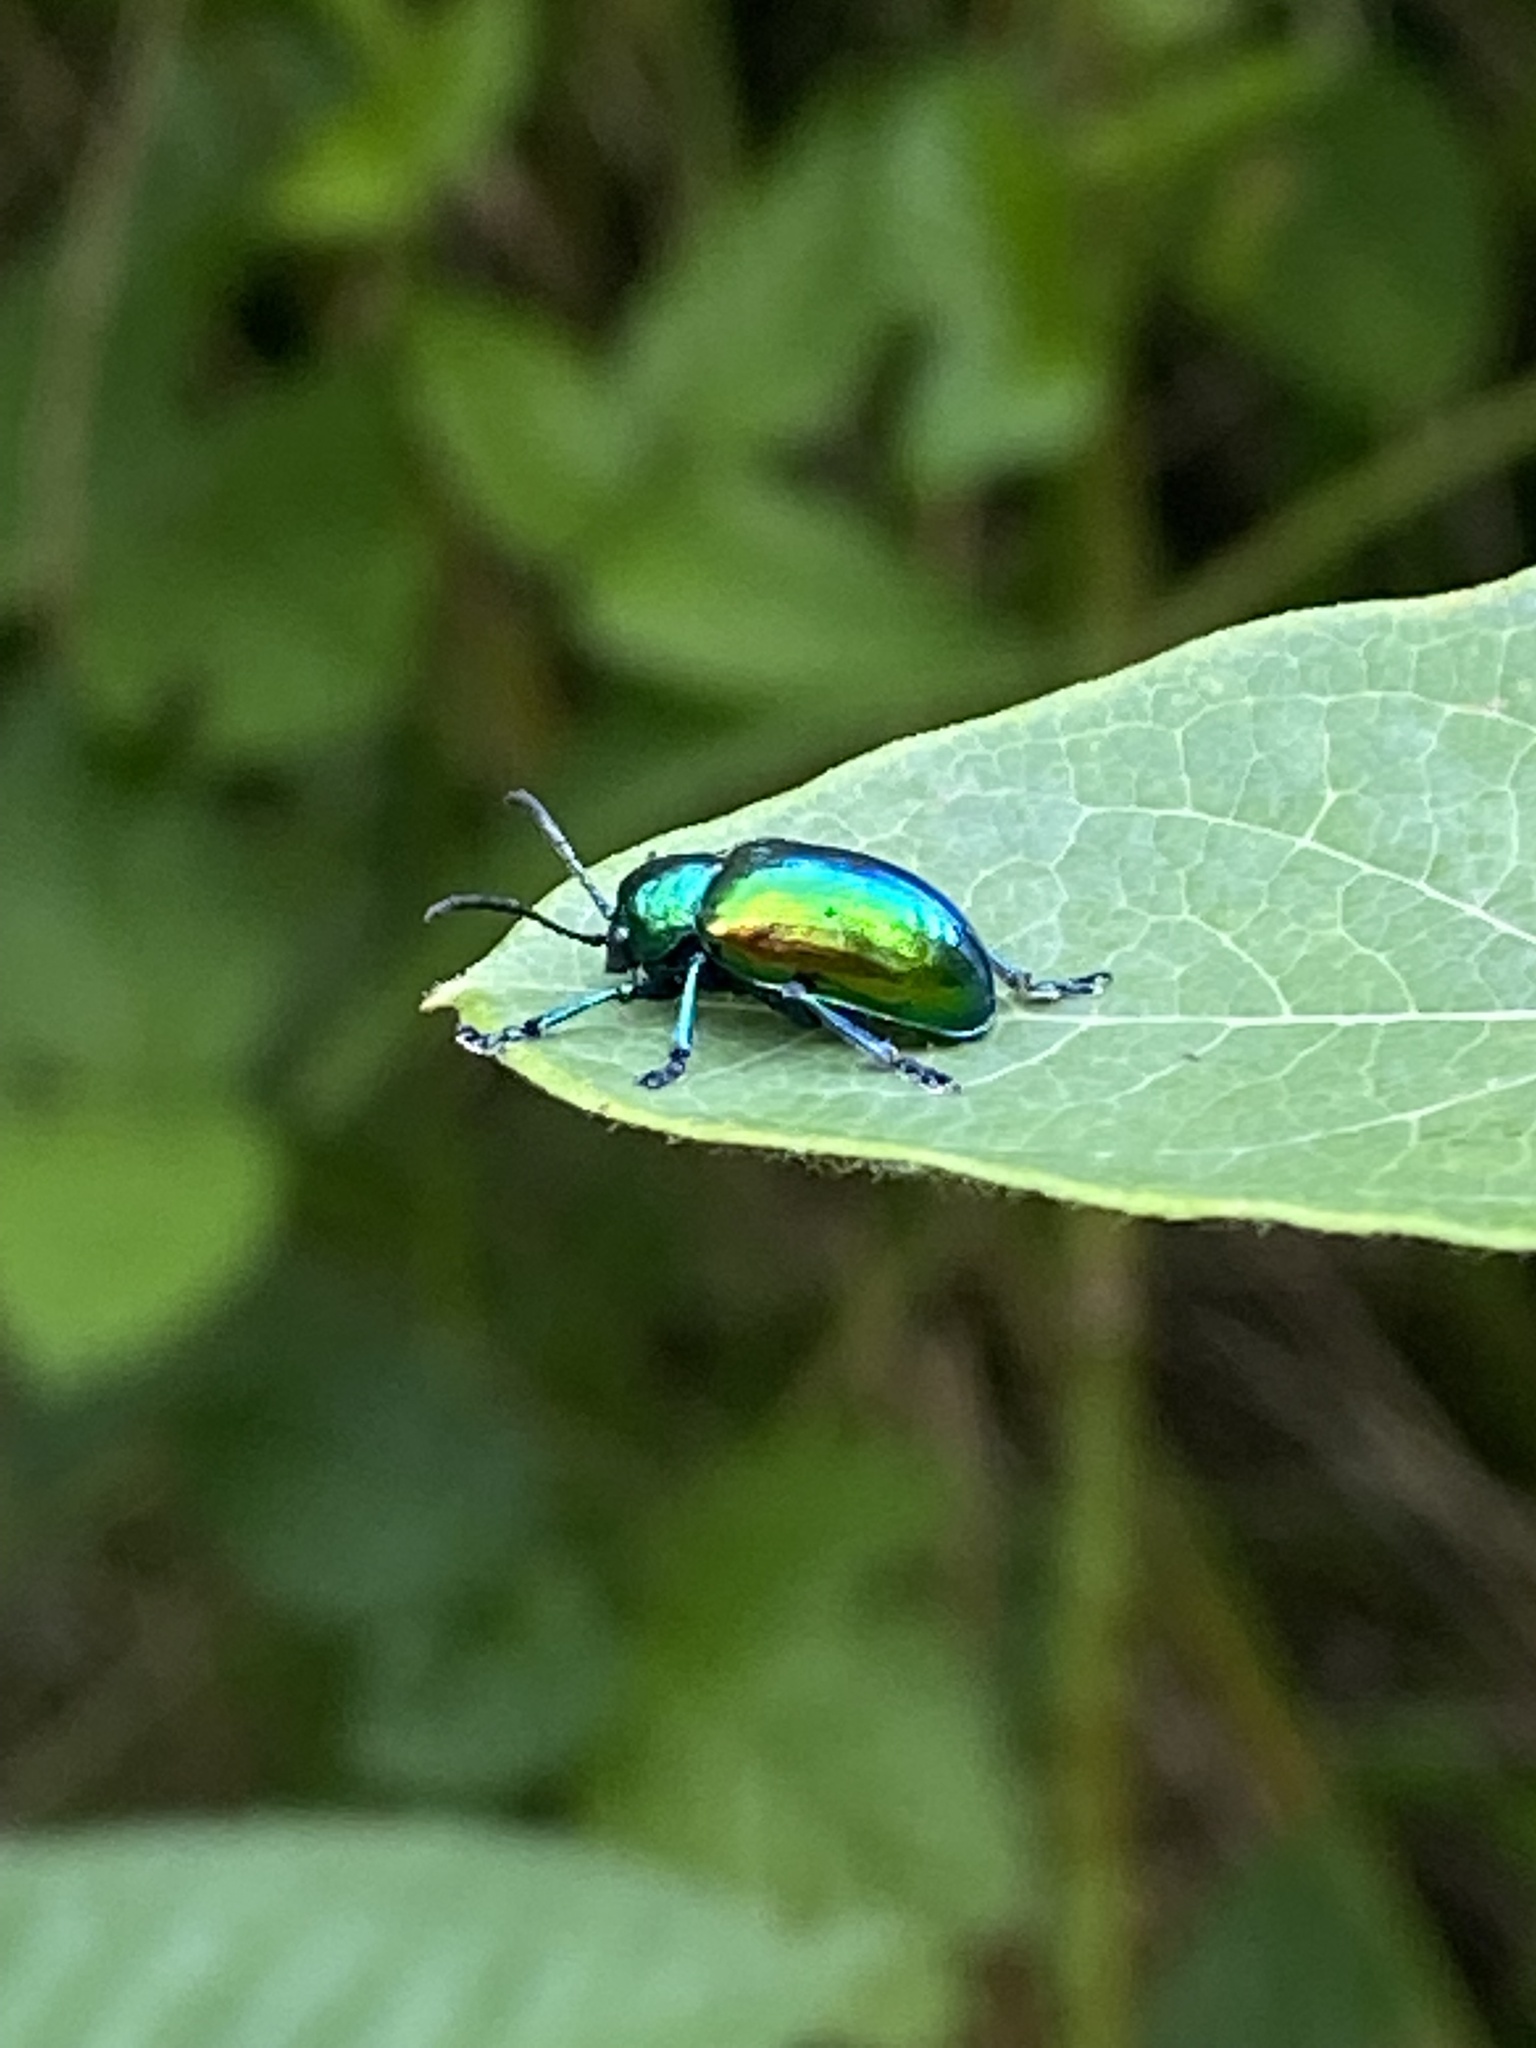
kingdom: Animalia
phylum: Arthropoda
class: Insecta
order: Coleoptera
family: Chrysomelidae
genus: Chrysochus
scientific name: Chrysochus auratus
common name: Dogbane leaf beetle
